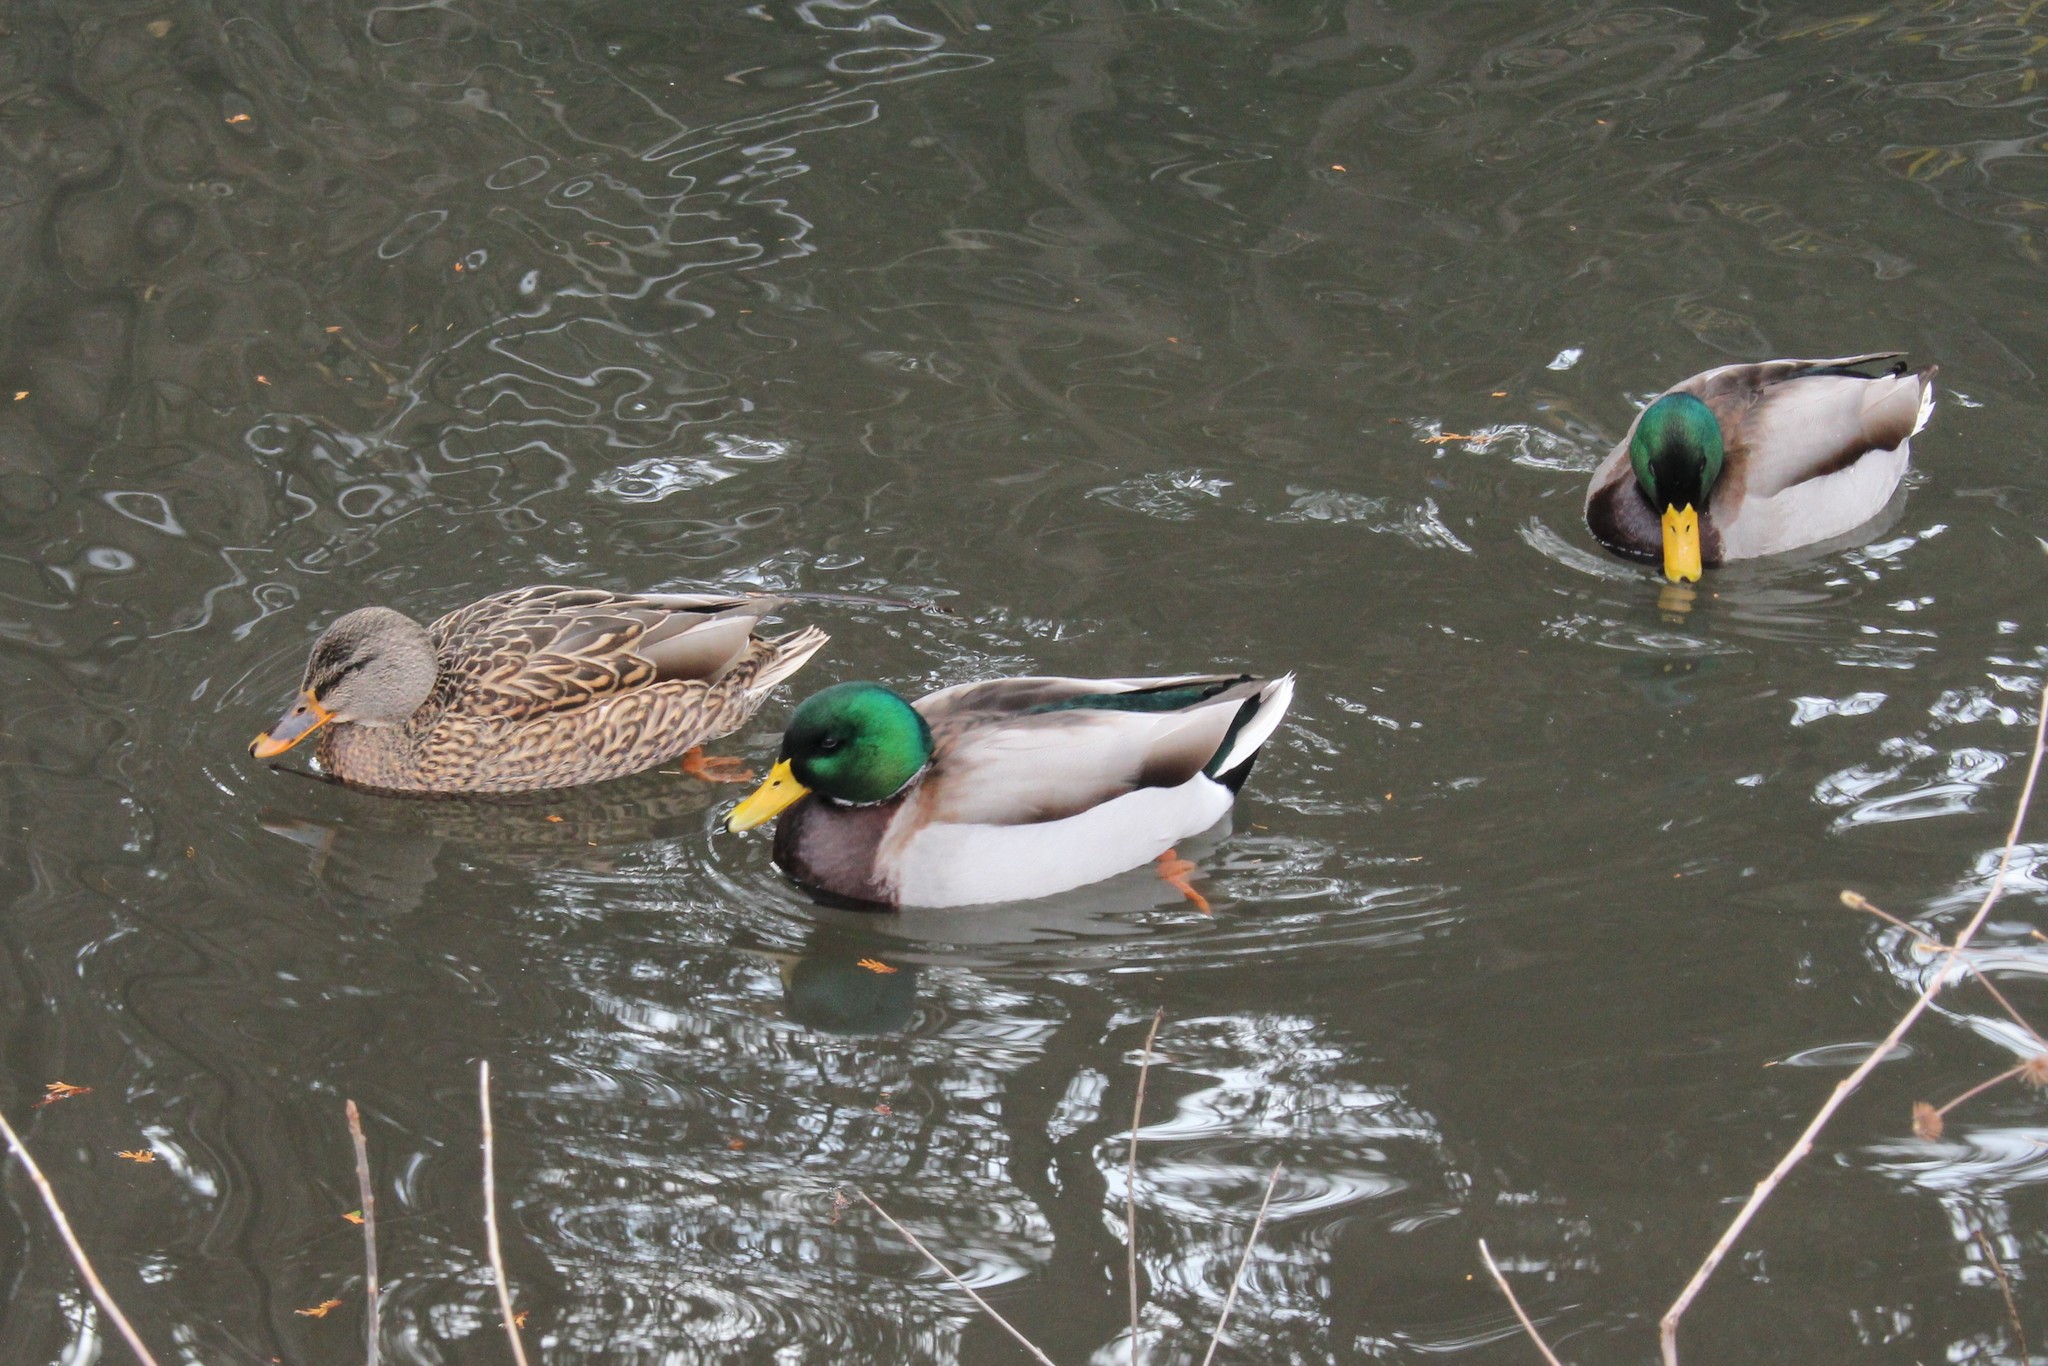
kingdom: Animalia
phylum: Chordata
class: Aves
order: Anseriformes
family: Anatidae
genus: Anas
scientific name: Anas platyrhynchos
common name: Mallard
